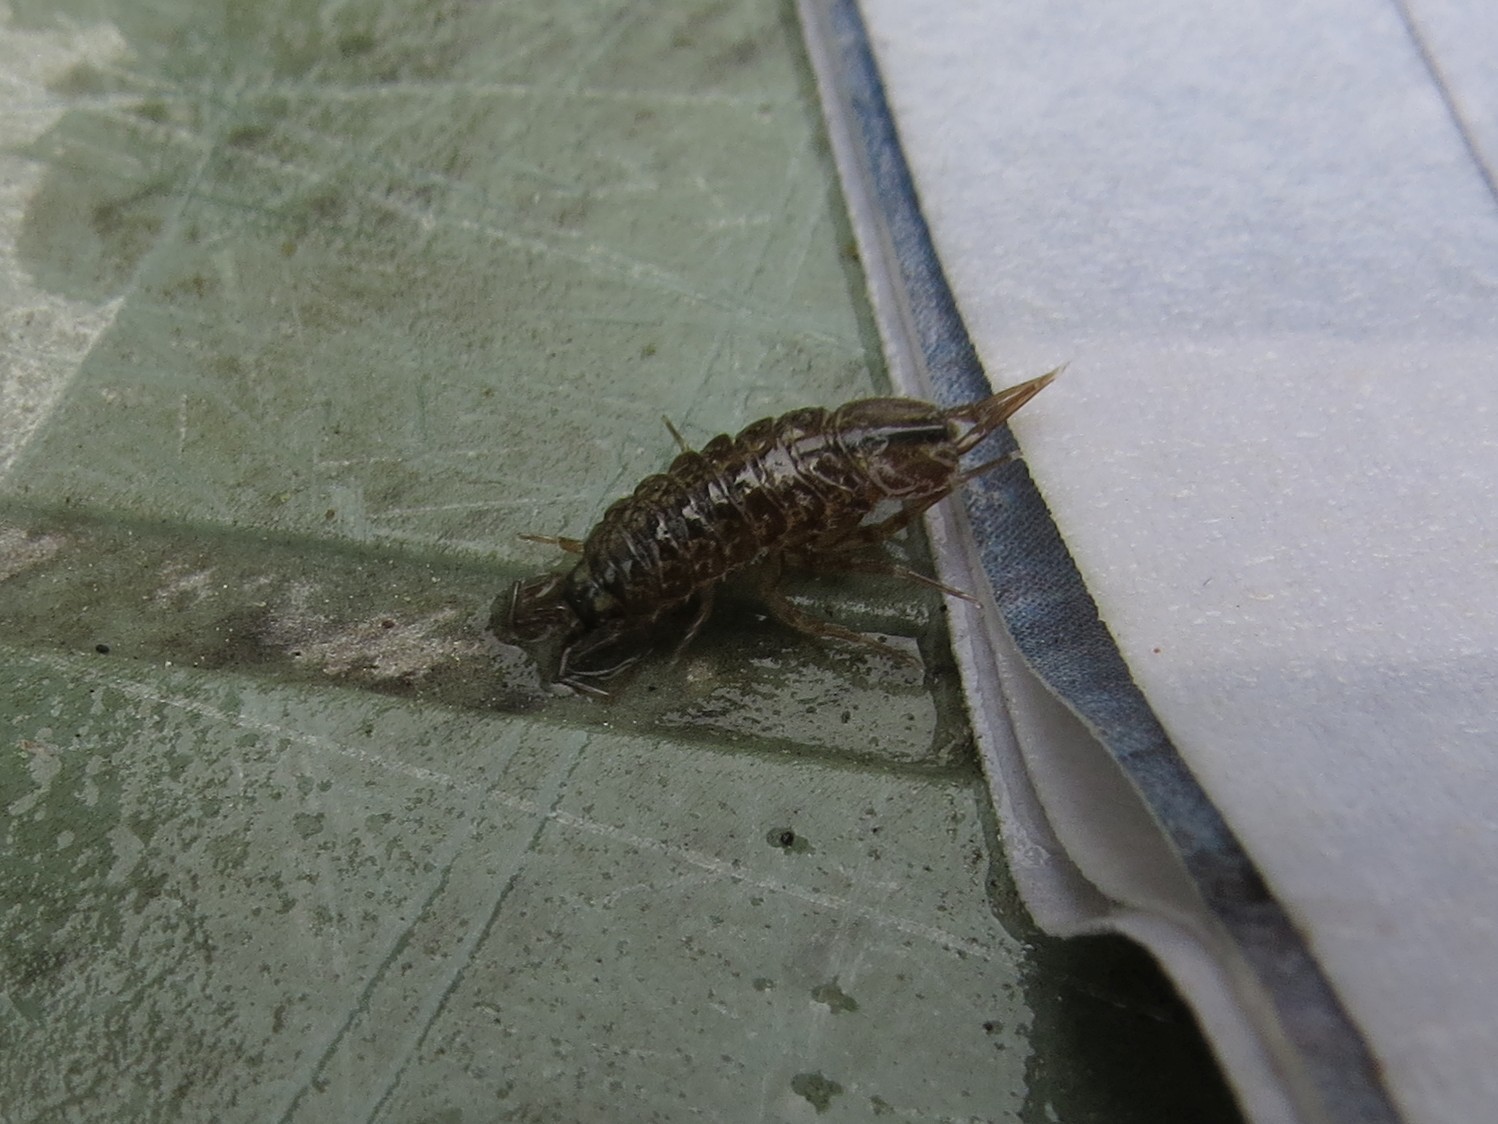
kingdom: Animalia
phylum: Arthropoda
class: Malacostraca
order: Isopoda
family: Asellidae
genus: Asellus
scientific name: Asellus aquaticus
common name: Water hog lice/slaters
